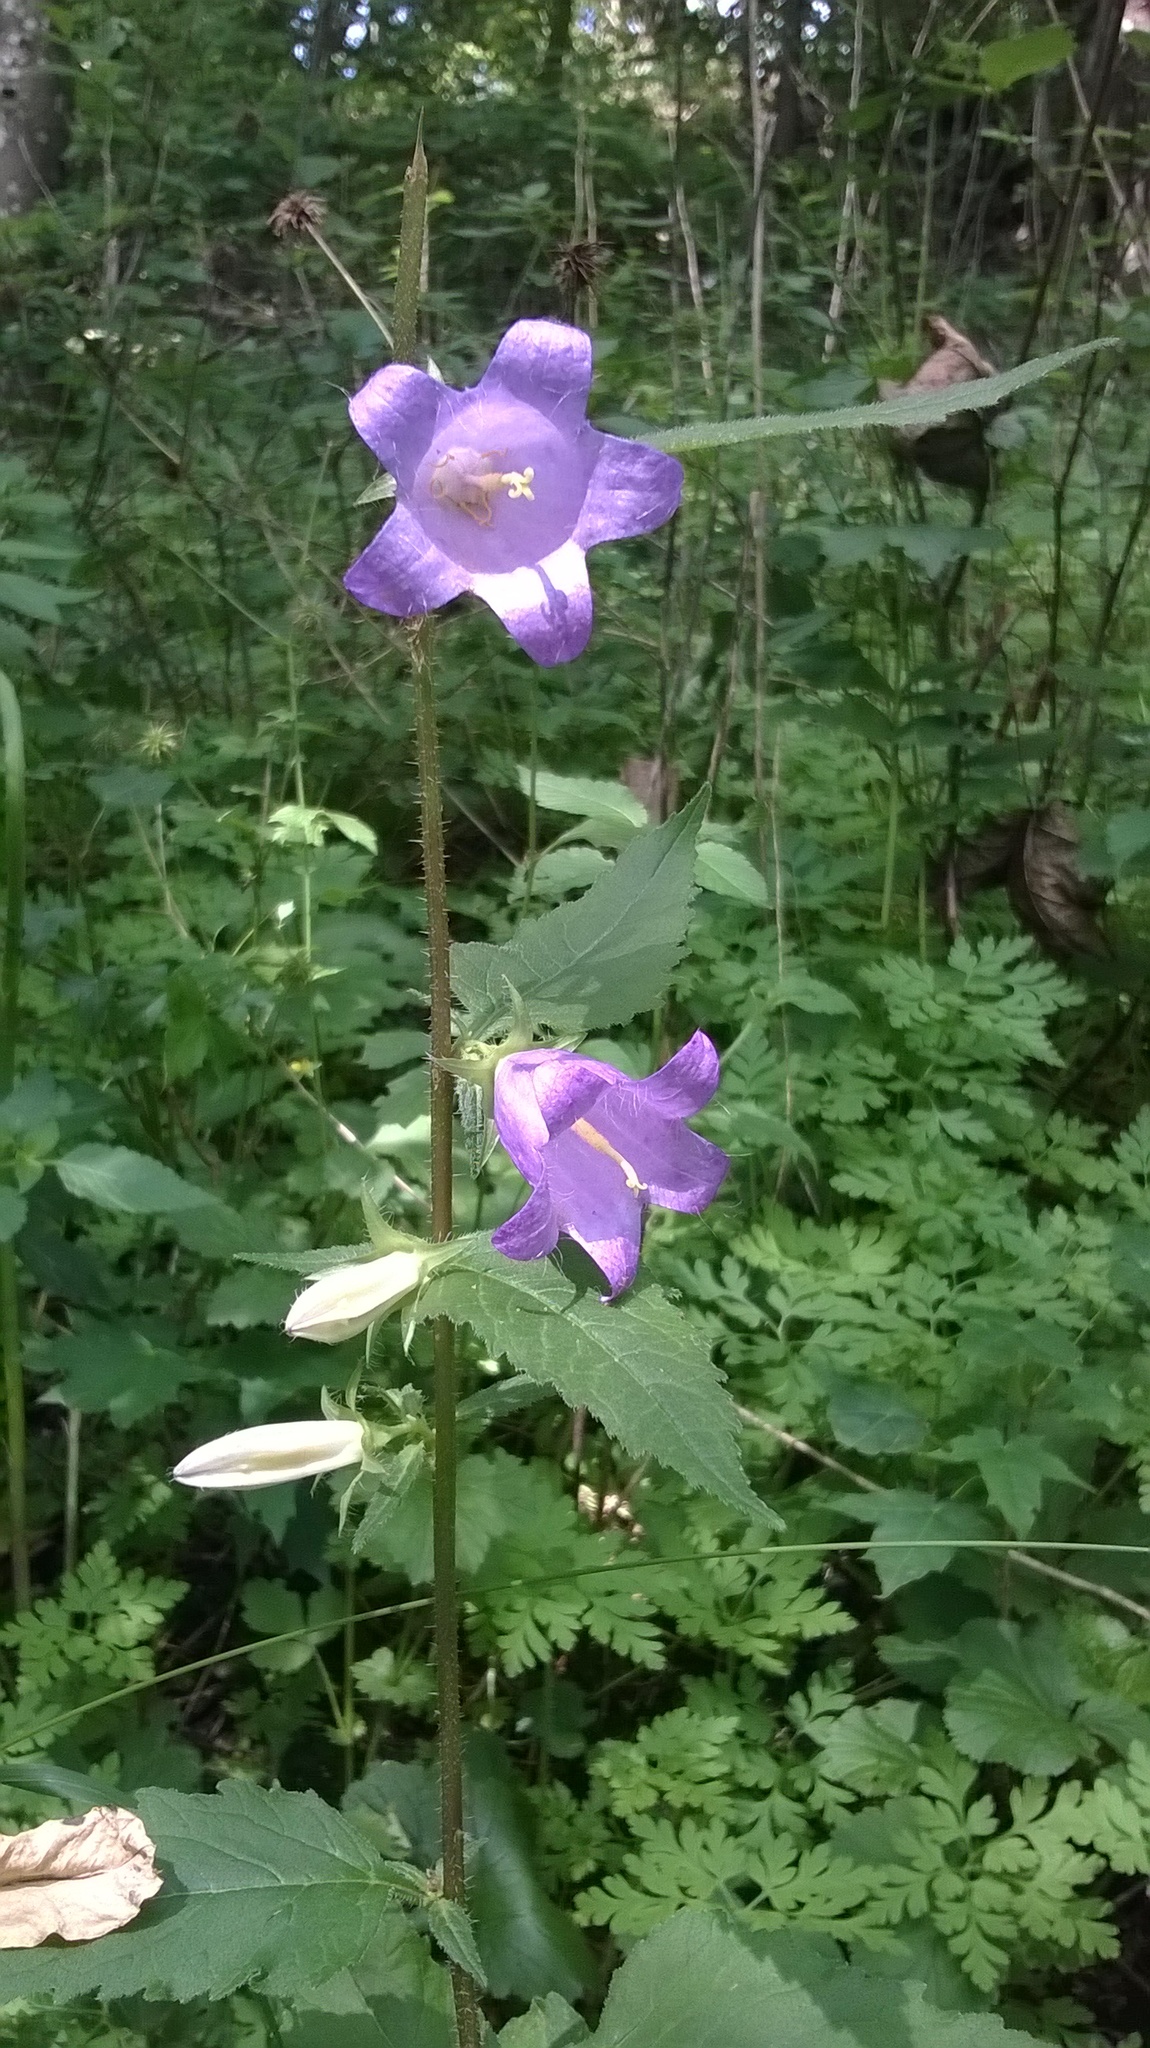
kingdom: Plantae
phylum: Tracheophyta
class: Magnoliopsida
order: Asterales
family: Campanulaceae
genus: Campanula
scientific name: Campanula trachelium
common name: Nettle-leaved bellflower
